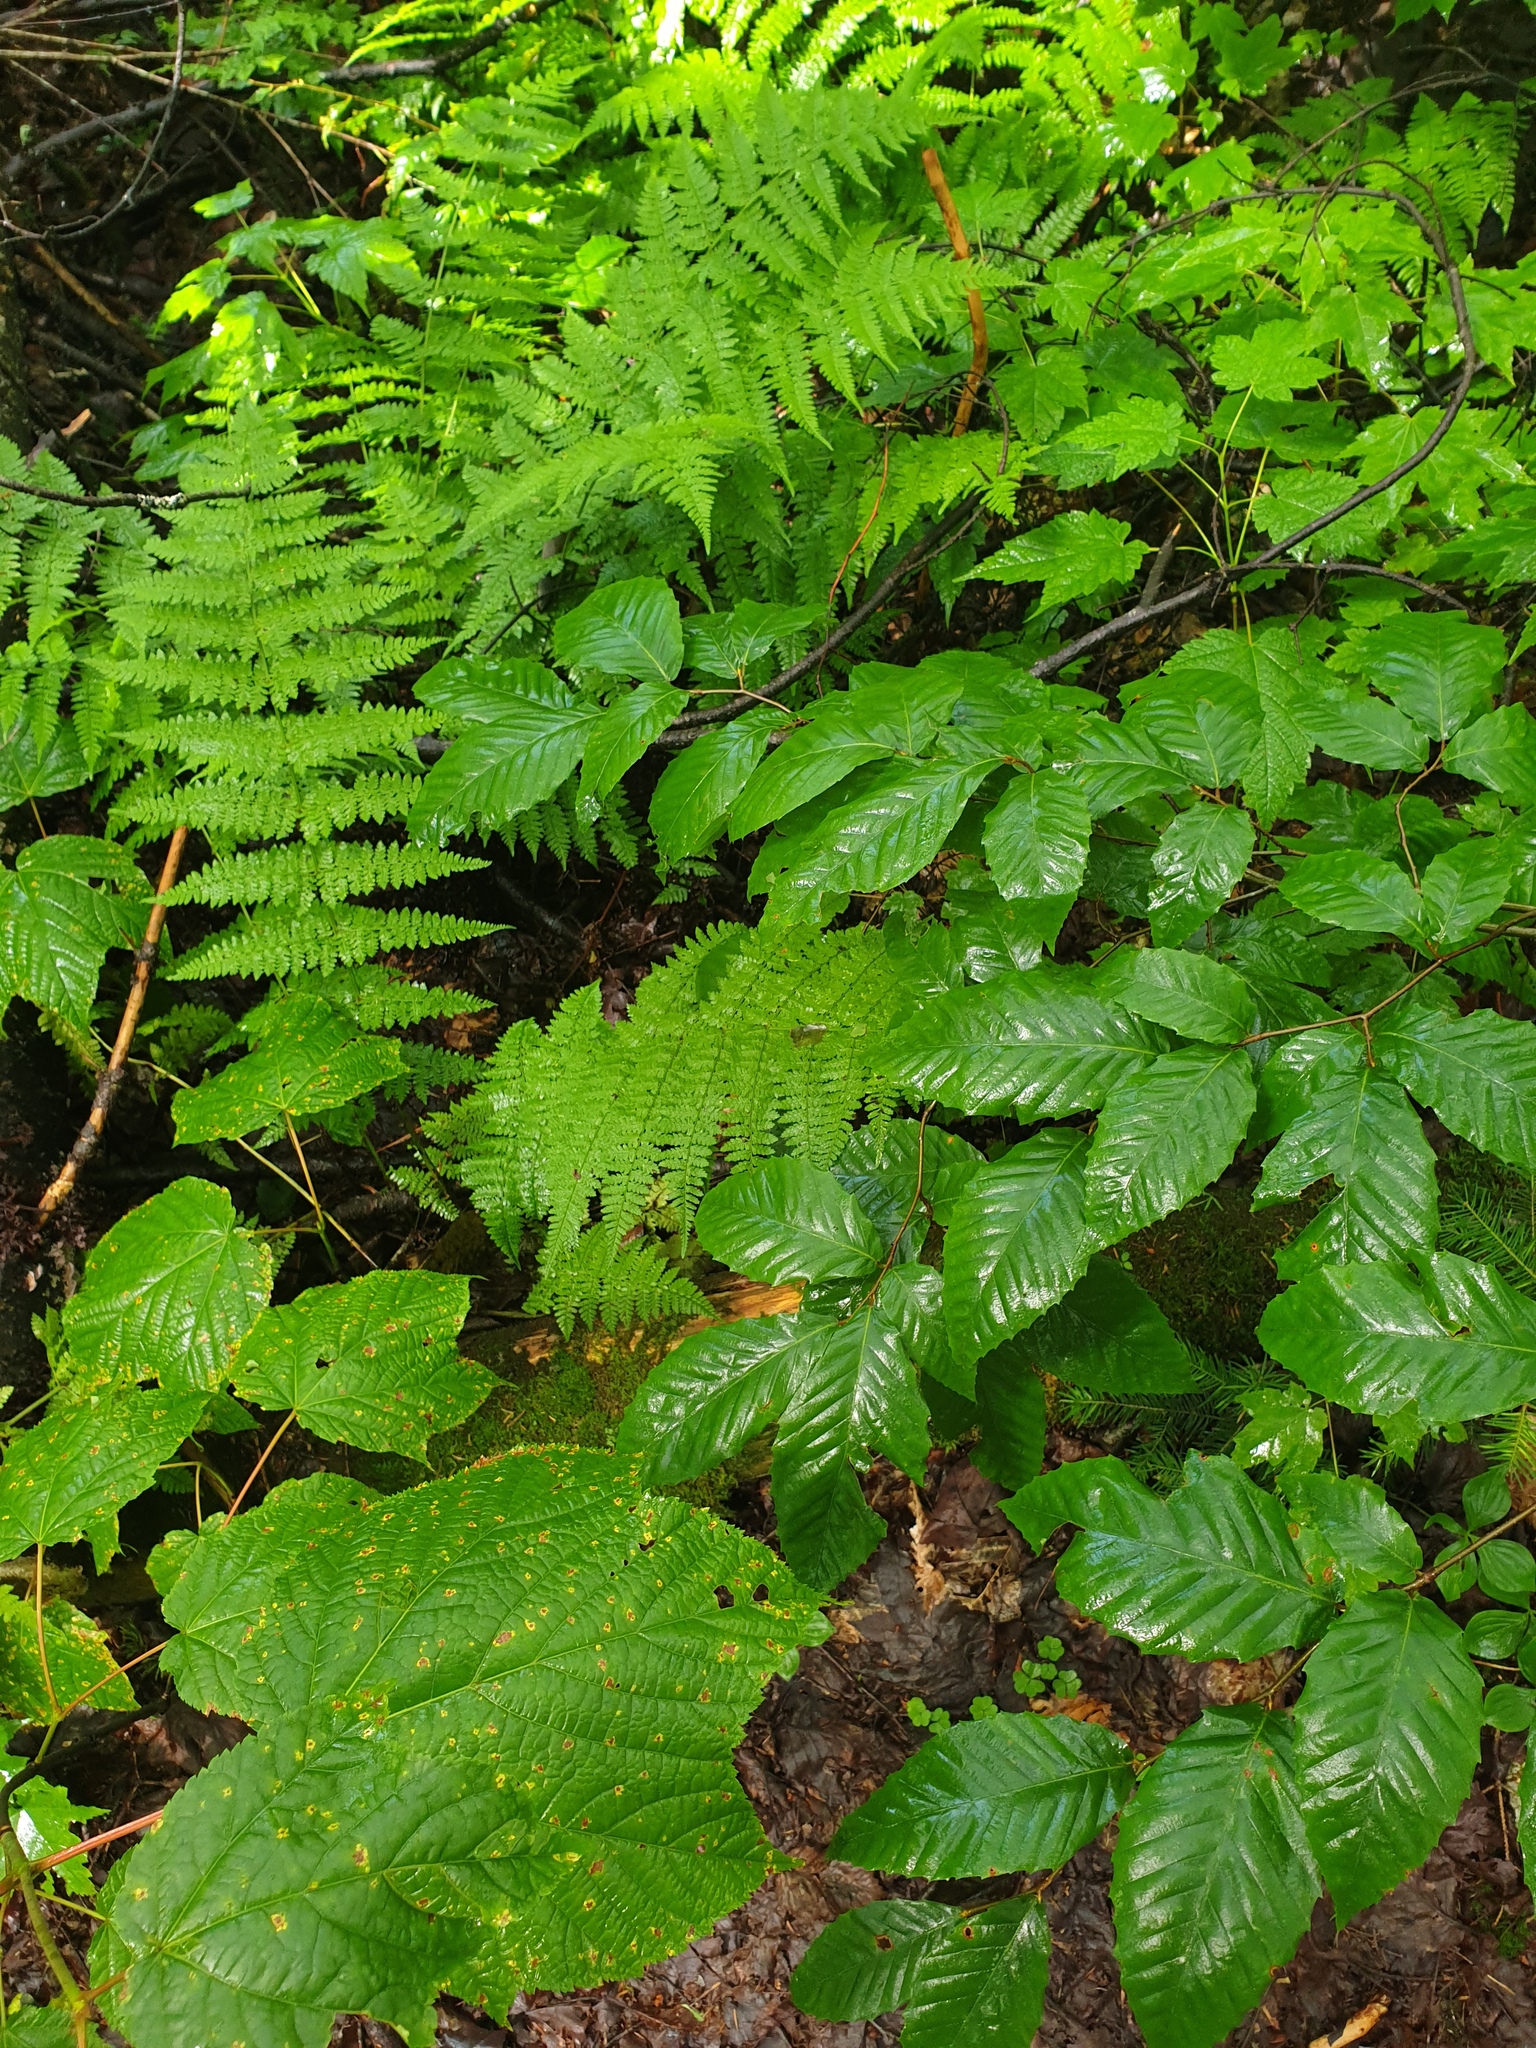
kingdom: Plantae
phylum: Tracheophyta
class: Magnoliopsida
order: Fagales
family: Fagaceae
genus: Fagus
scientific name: Fagus grandifolia
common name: American beech
